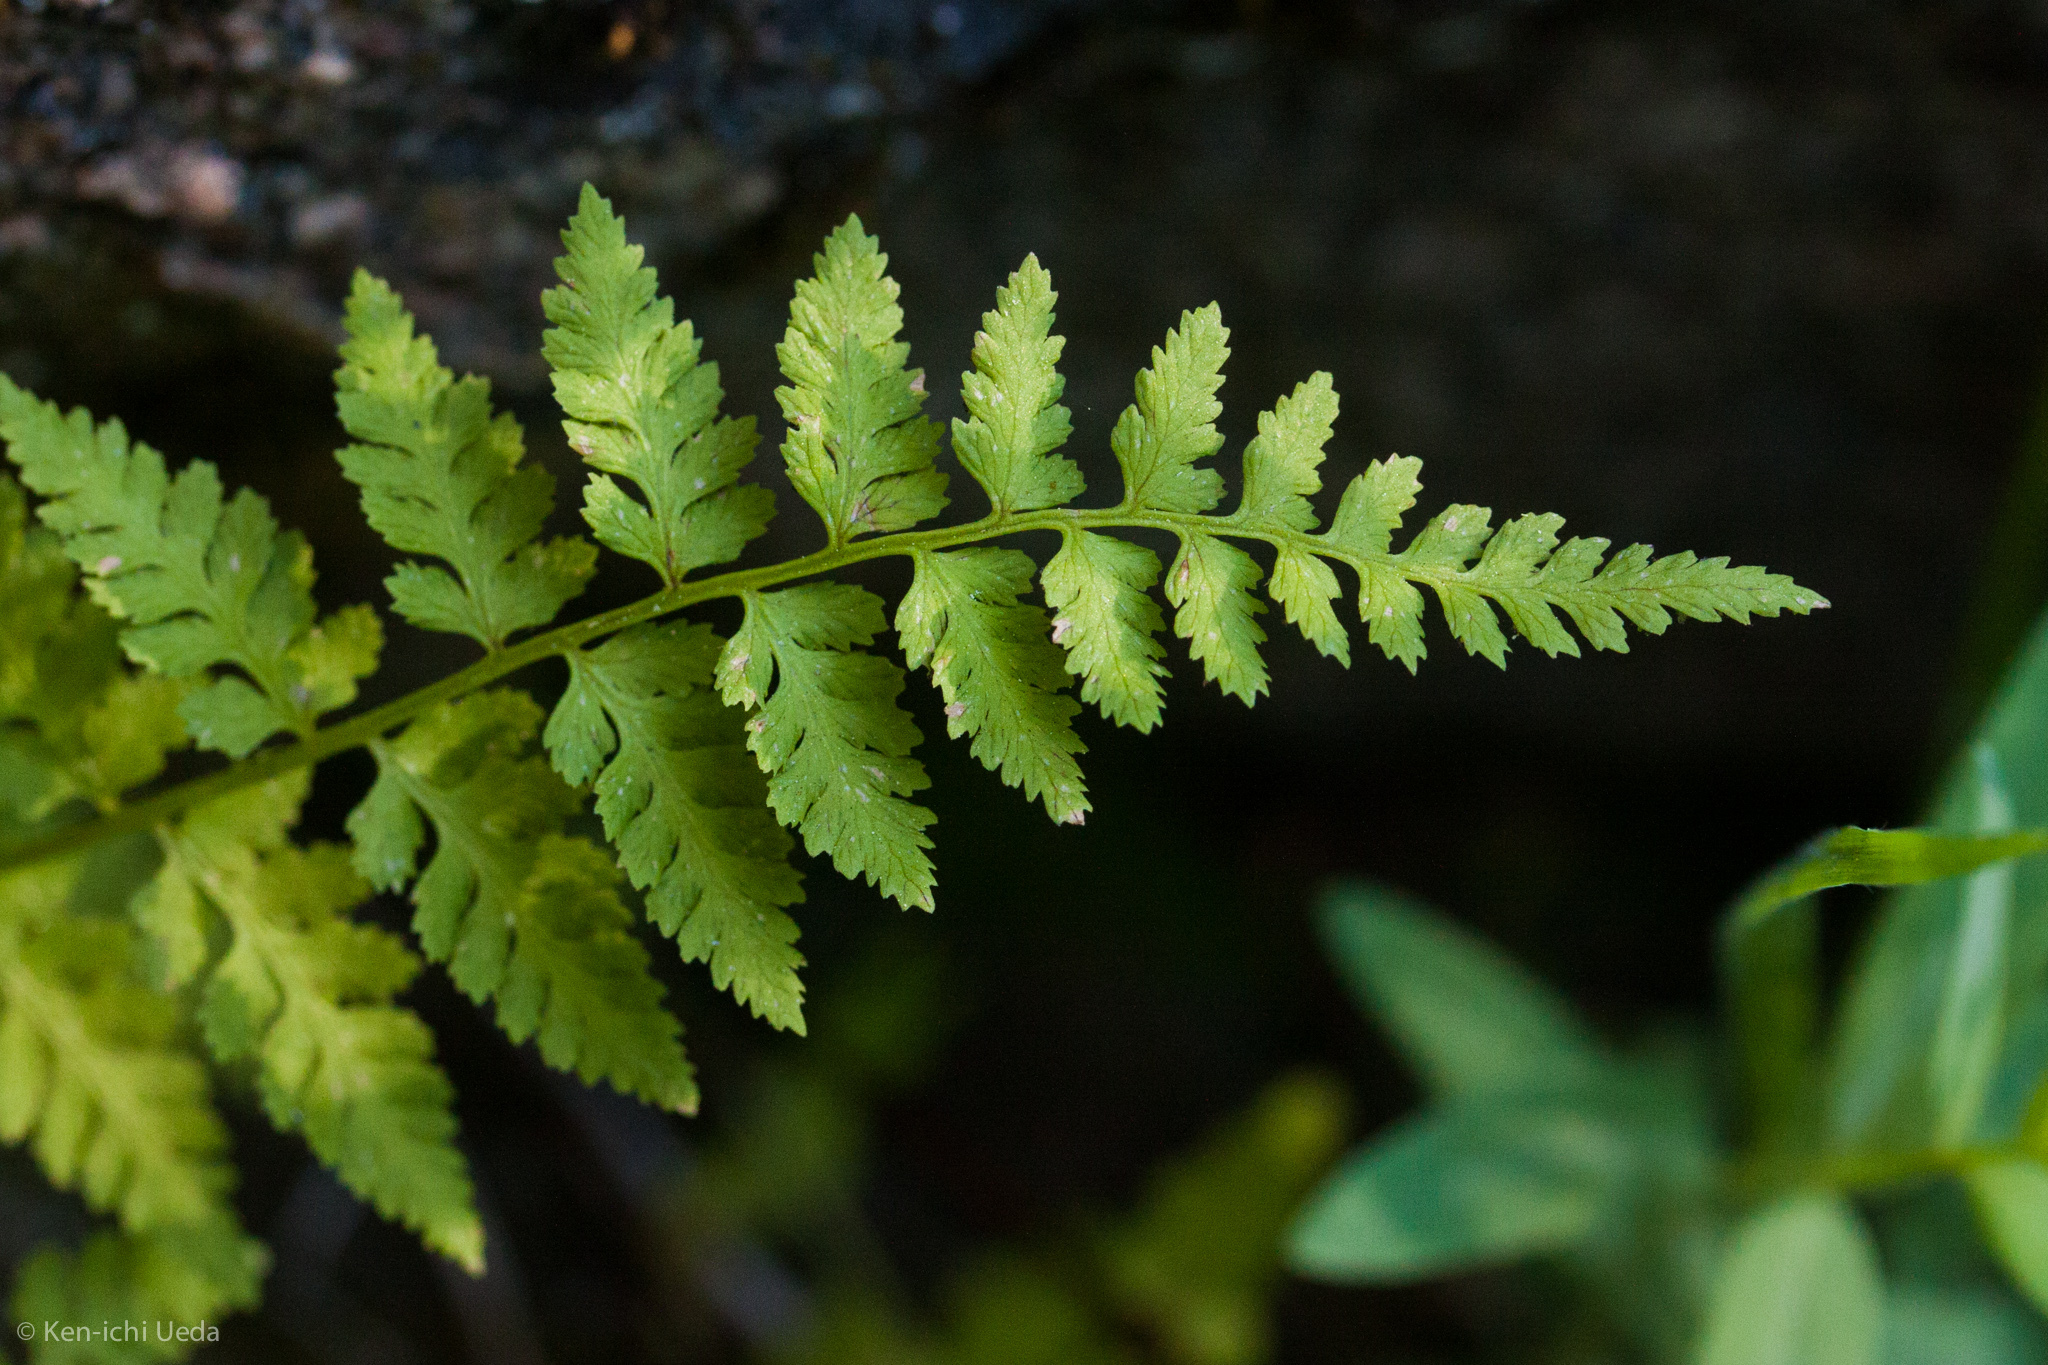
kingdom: Plantae
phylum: Tracheophyta
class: Polypodiopsida
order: Polypodiales
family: Cystopteridaceae
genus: Cystopteris
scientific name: Cystopteris fragilis
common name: Brittle bladder fern
